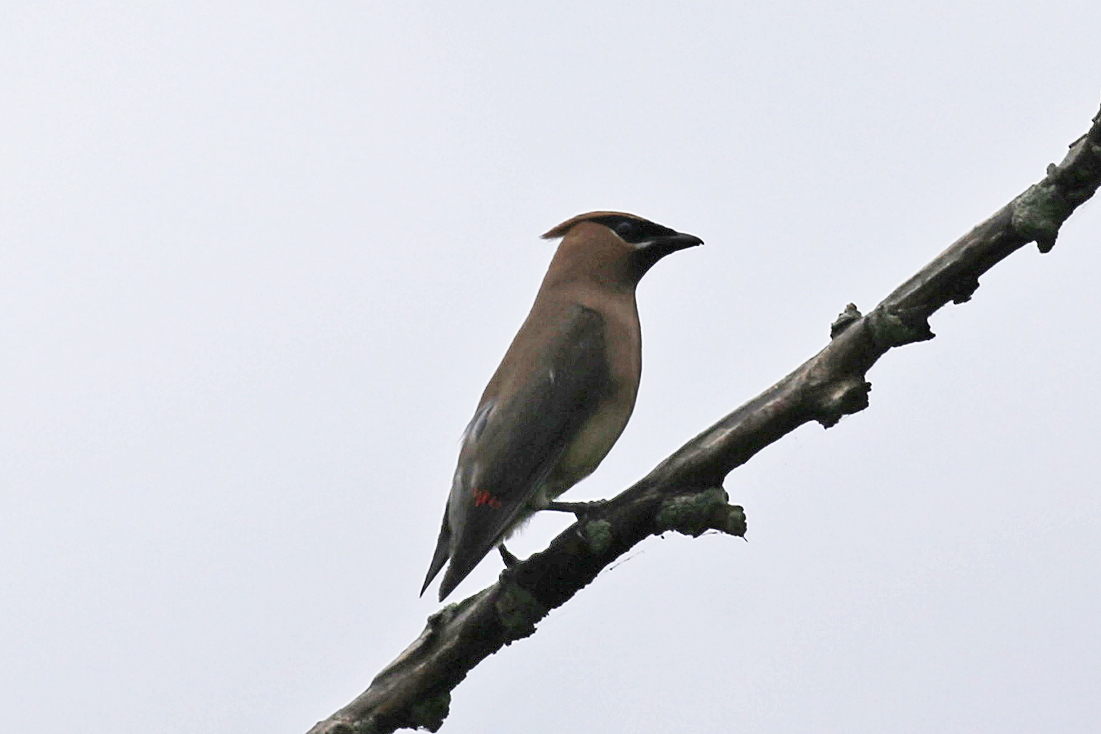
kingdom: Animalia
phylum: Chordata
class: Aves
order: Passeriformes
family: Bombycillidae
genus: Bombycilla
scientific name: Bombycilla cedrorum
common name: Cedar waxwing
